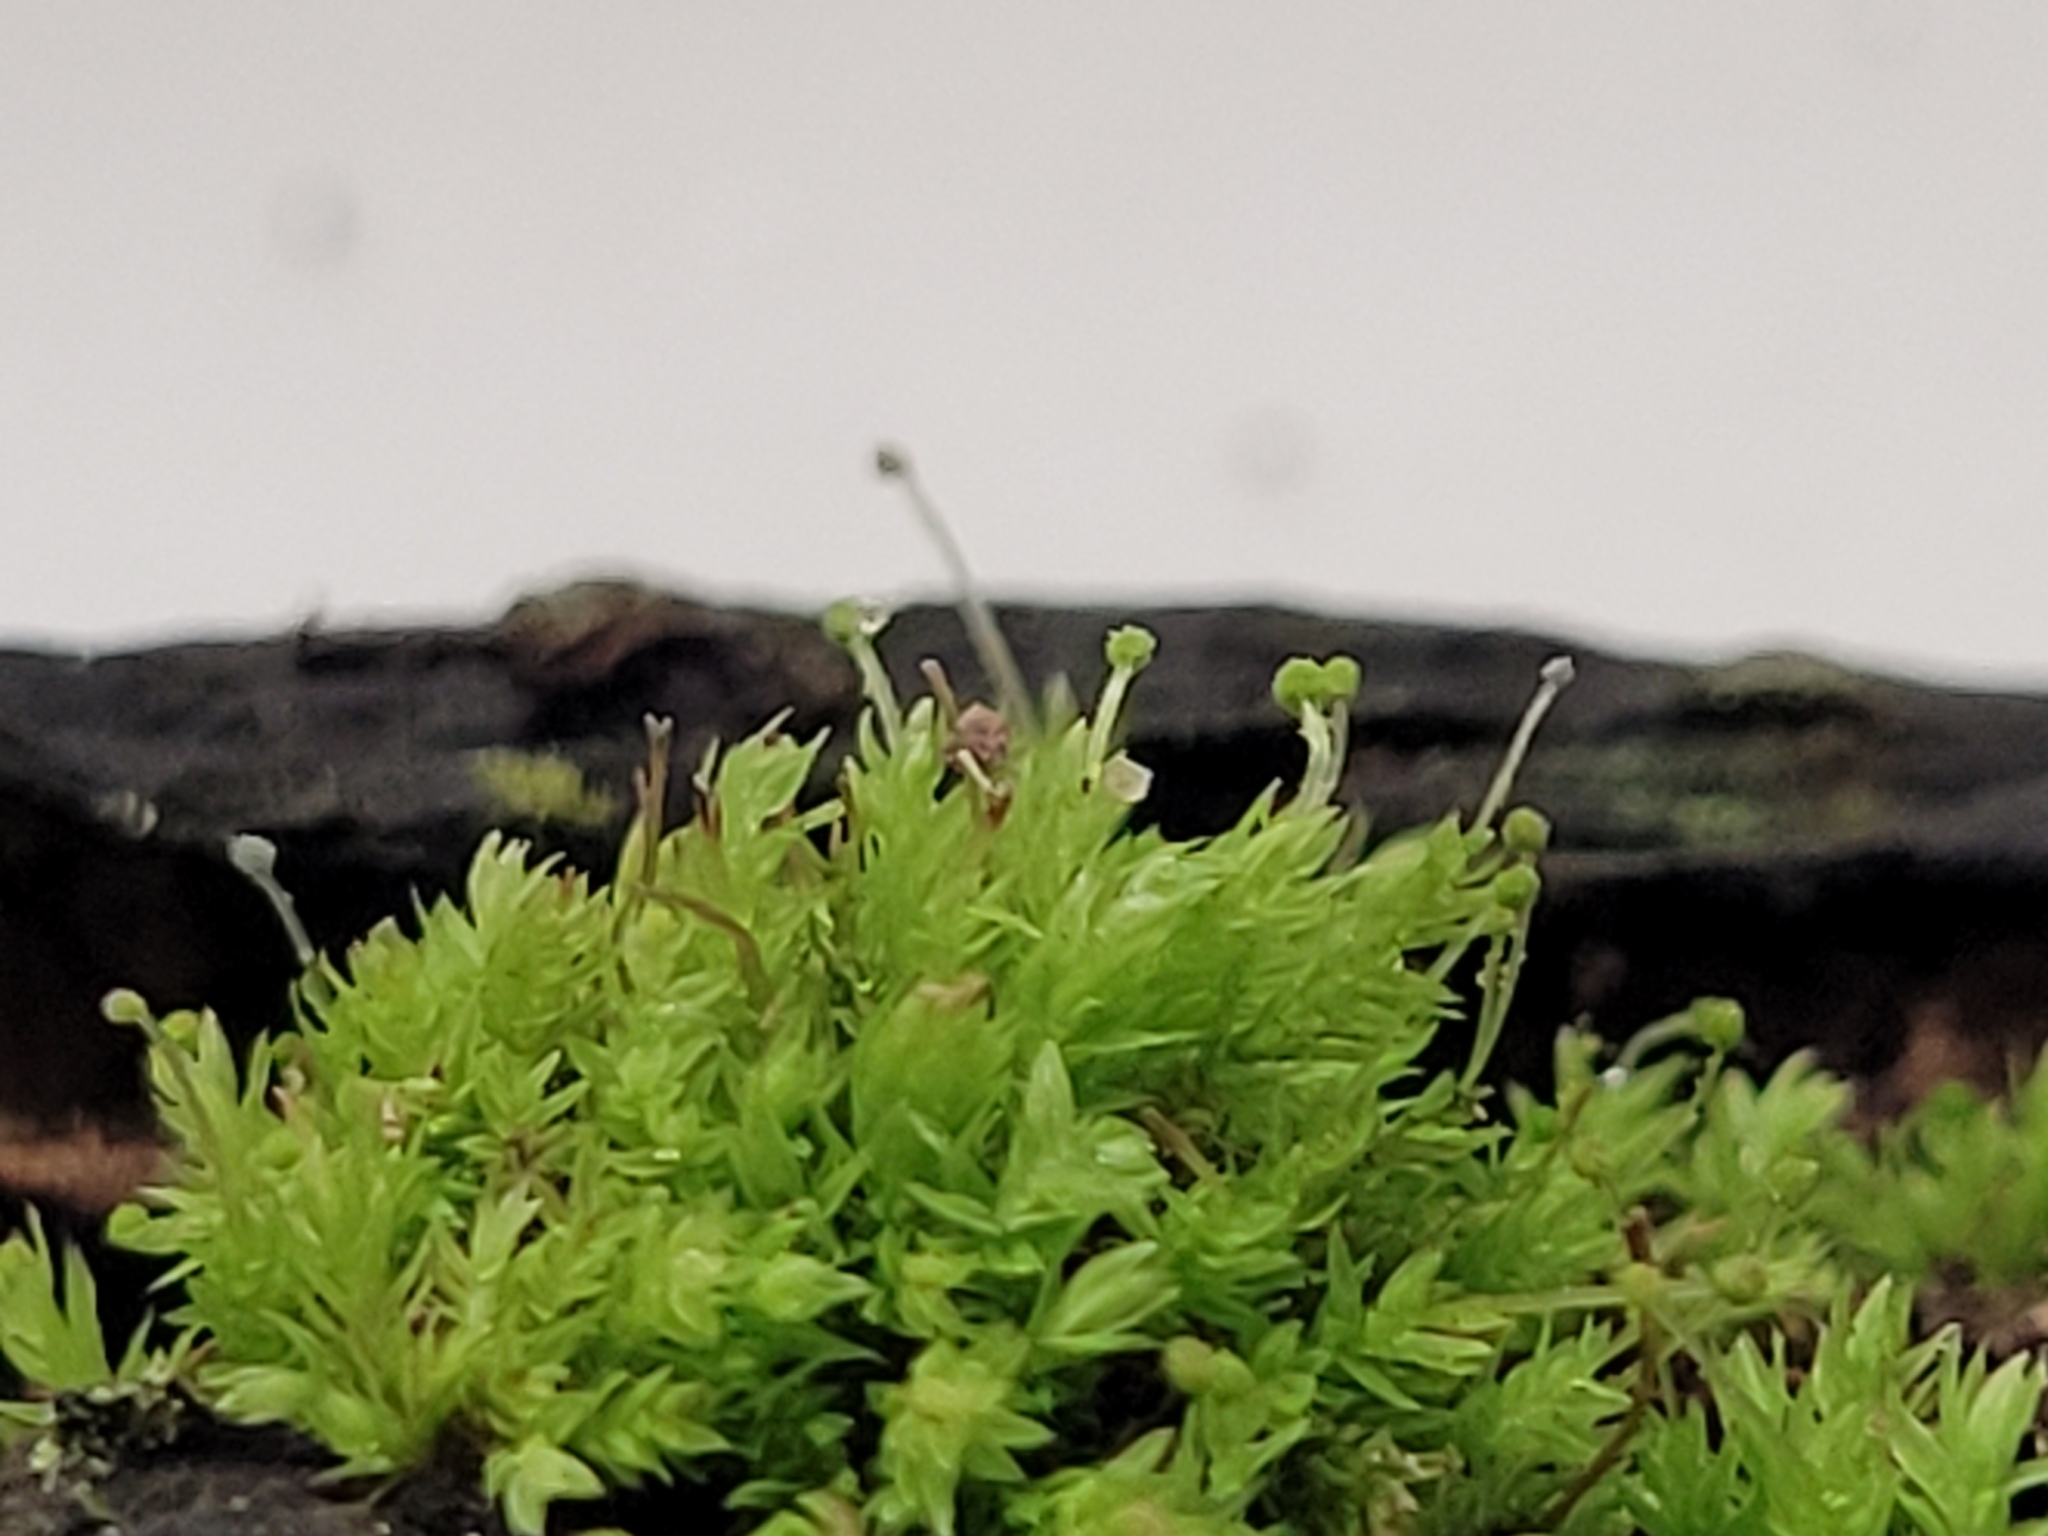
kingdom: Plantae
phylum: Bryophyta
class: Bryopsida
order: Aulacomniales
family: Aulacomniaceae
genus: Aulacomnium
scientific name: Aulacomnium androgynum
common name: Little groove moss
